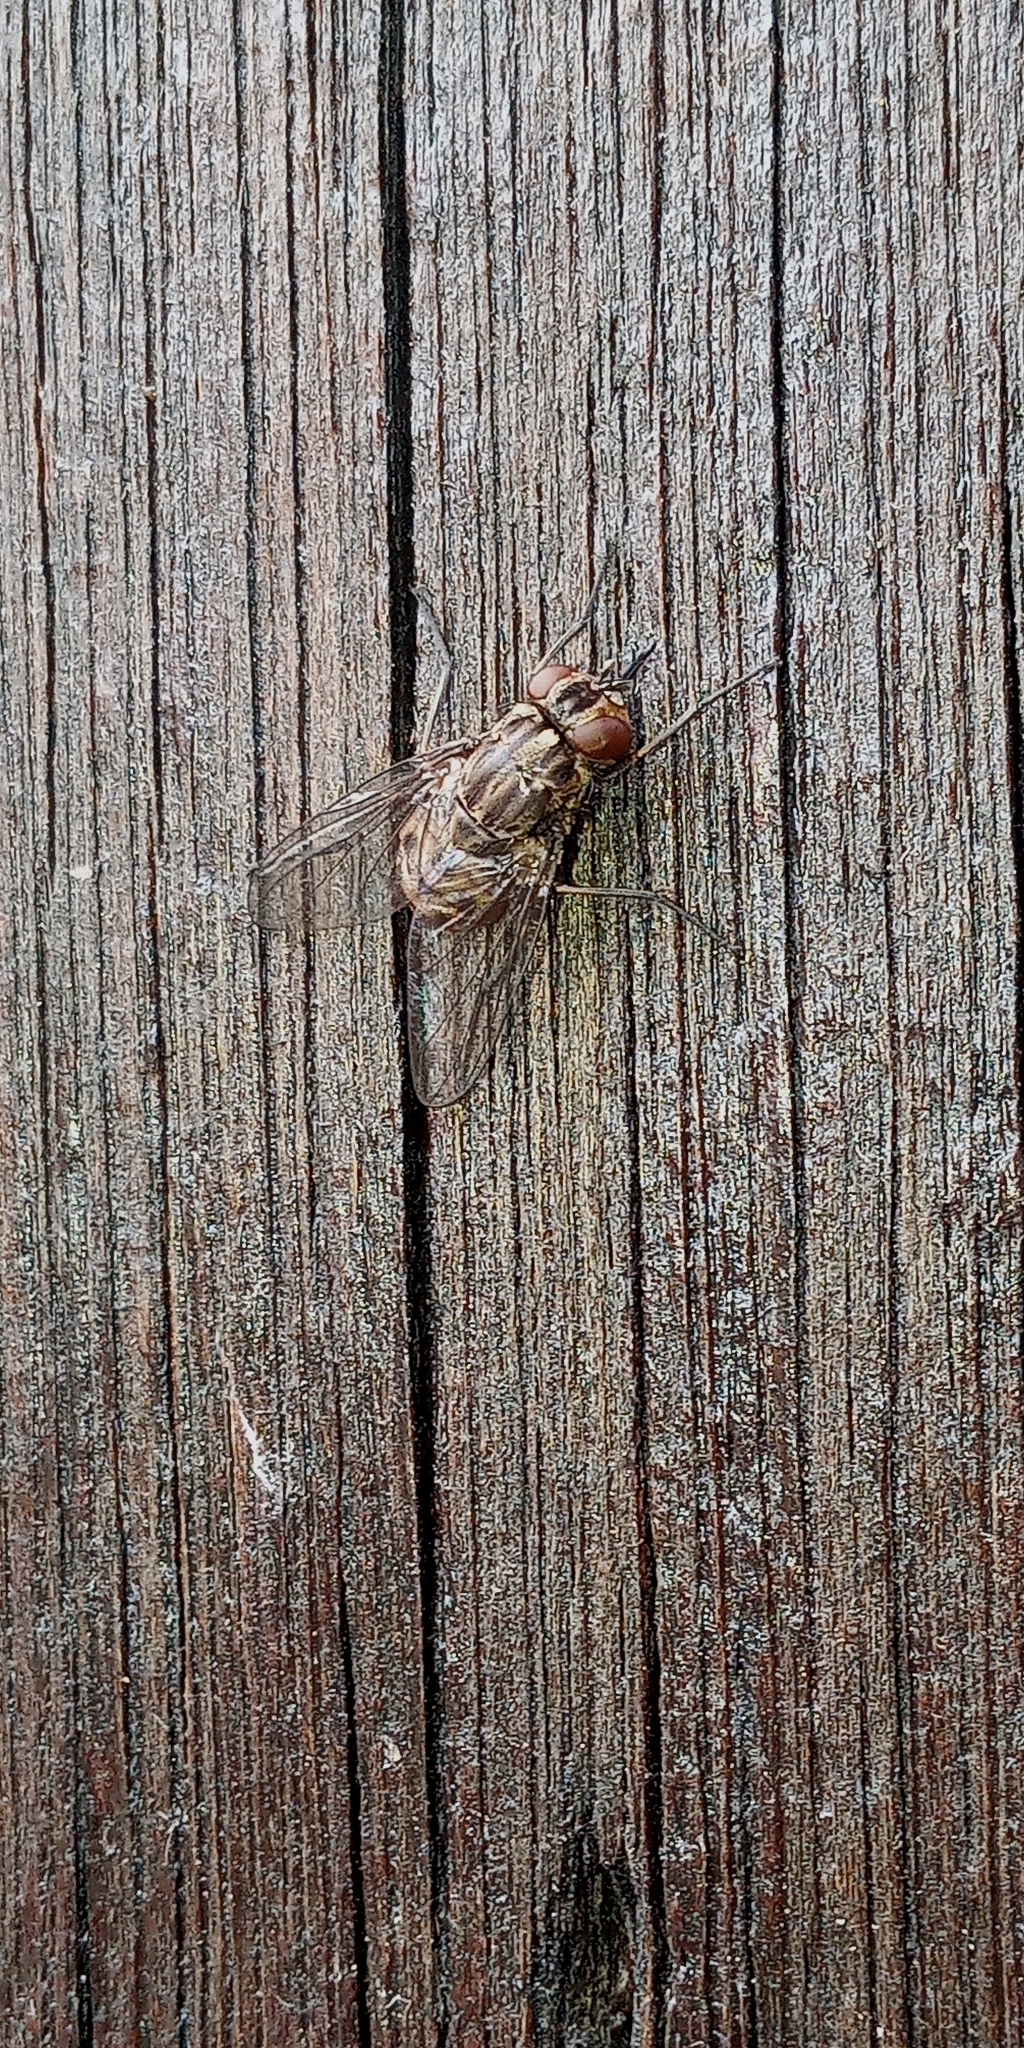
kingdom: Animalia
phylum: Arthropoda
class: Insecta
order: Diptera
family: Muscidae
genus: Stomoxys
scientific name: Stomoxys calcitrans
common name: Stable fly
